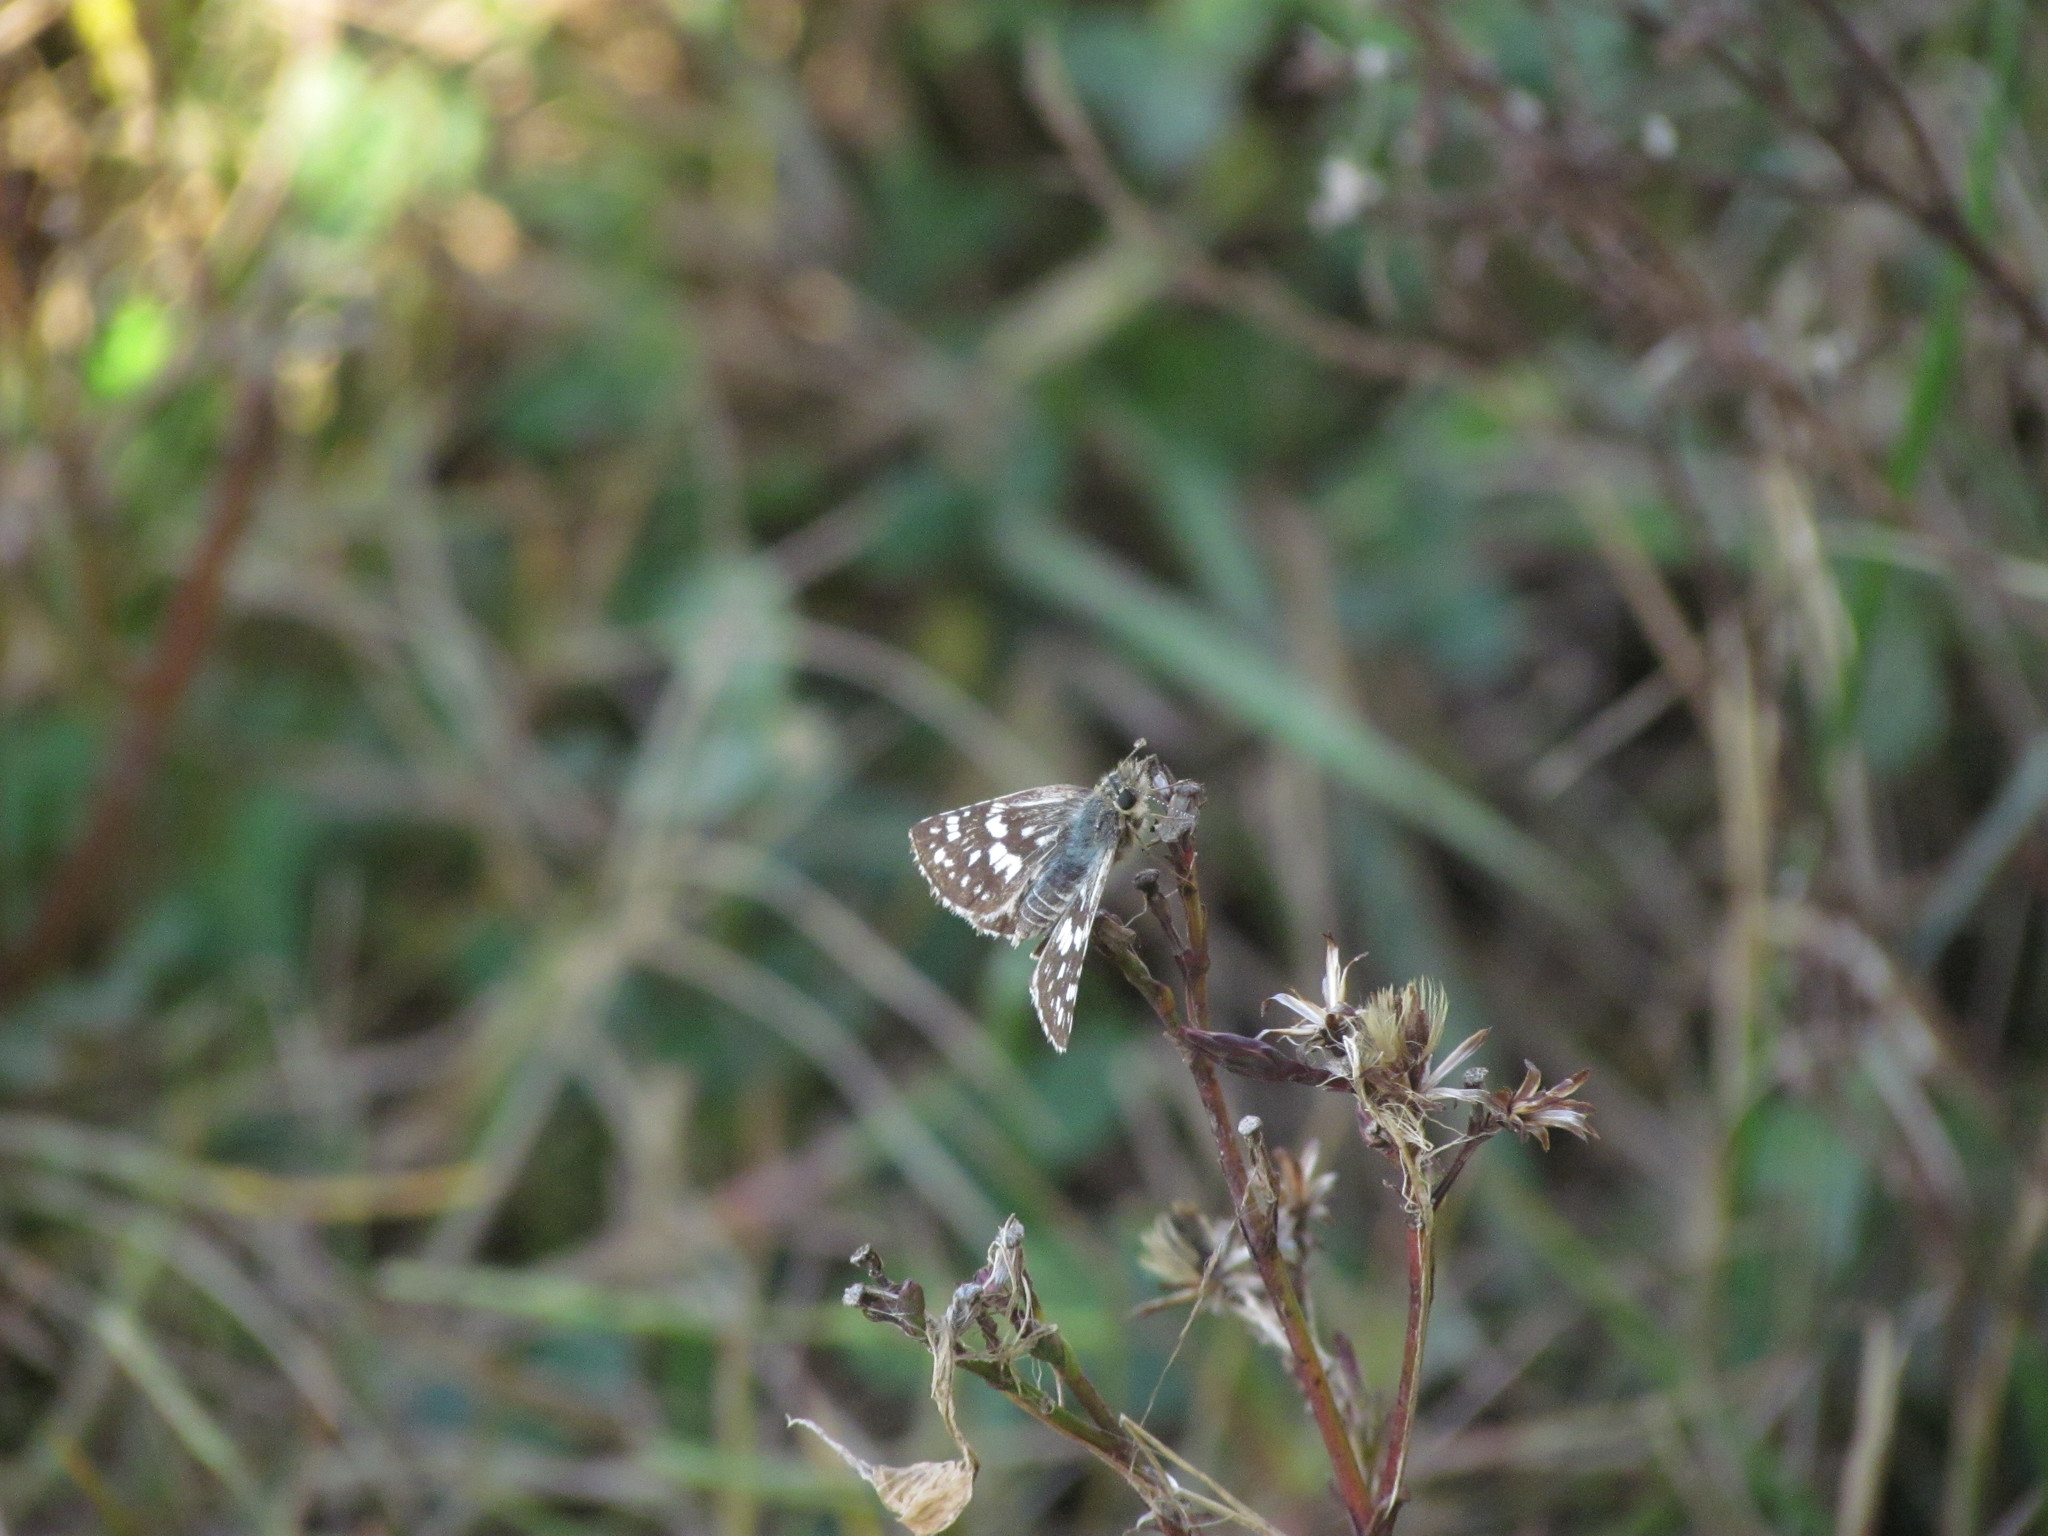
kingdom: Animalia
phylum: Arthropoda
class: Insecta
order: Lepidoptera
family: Hesperiidae
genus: Burnsius
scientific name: Burnsius orcynoides
